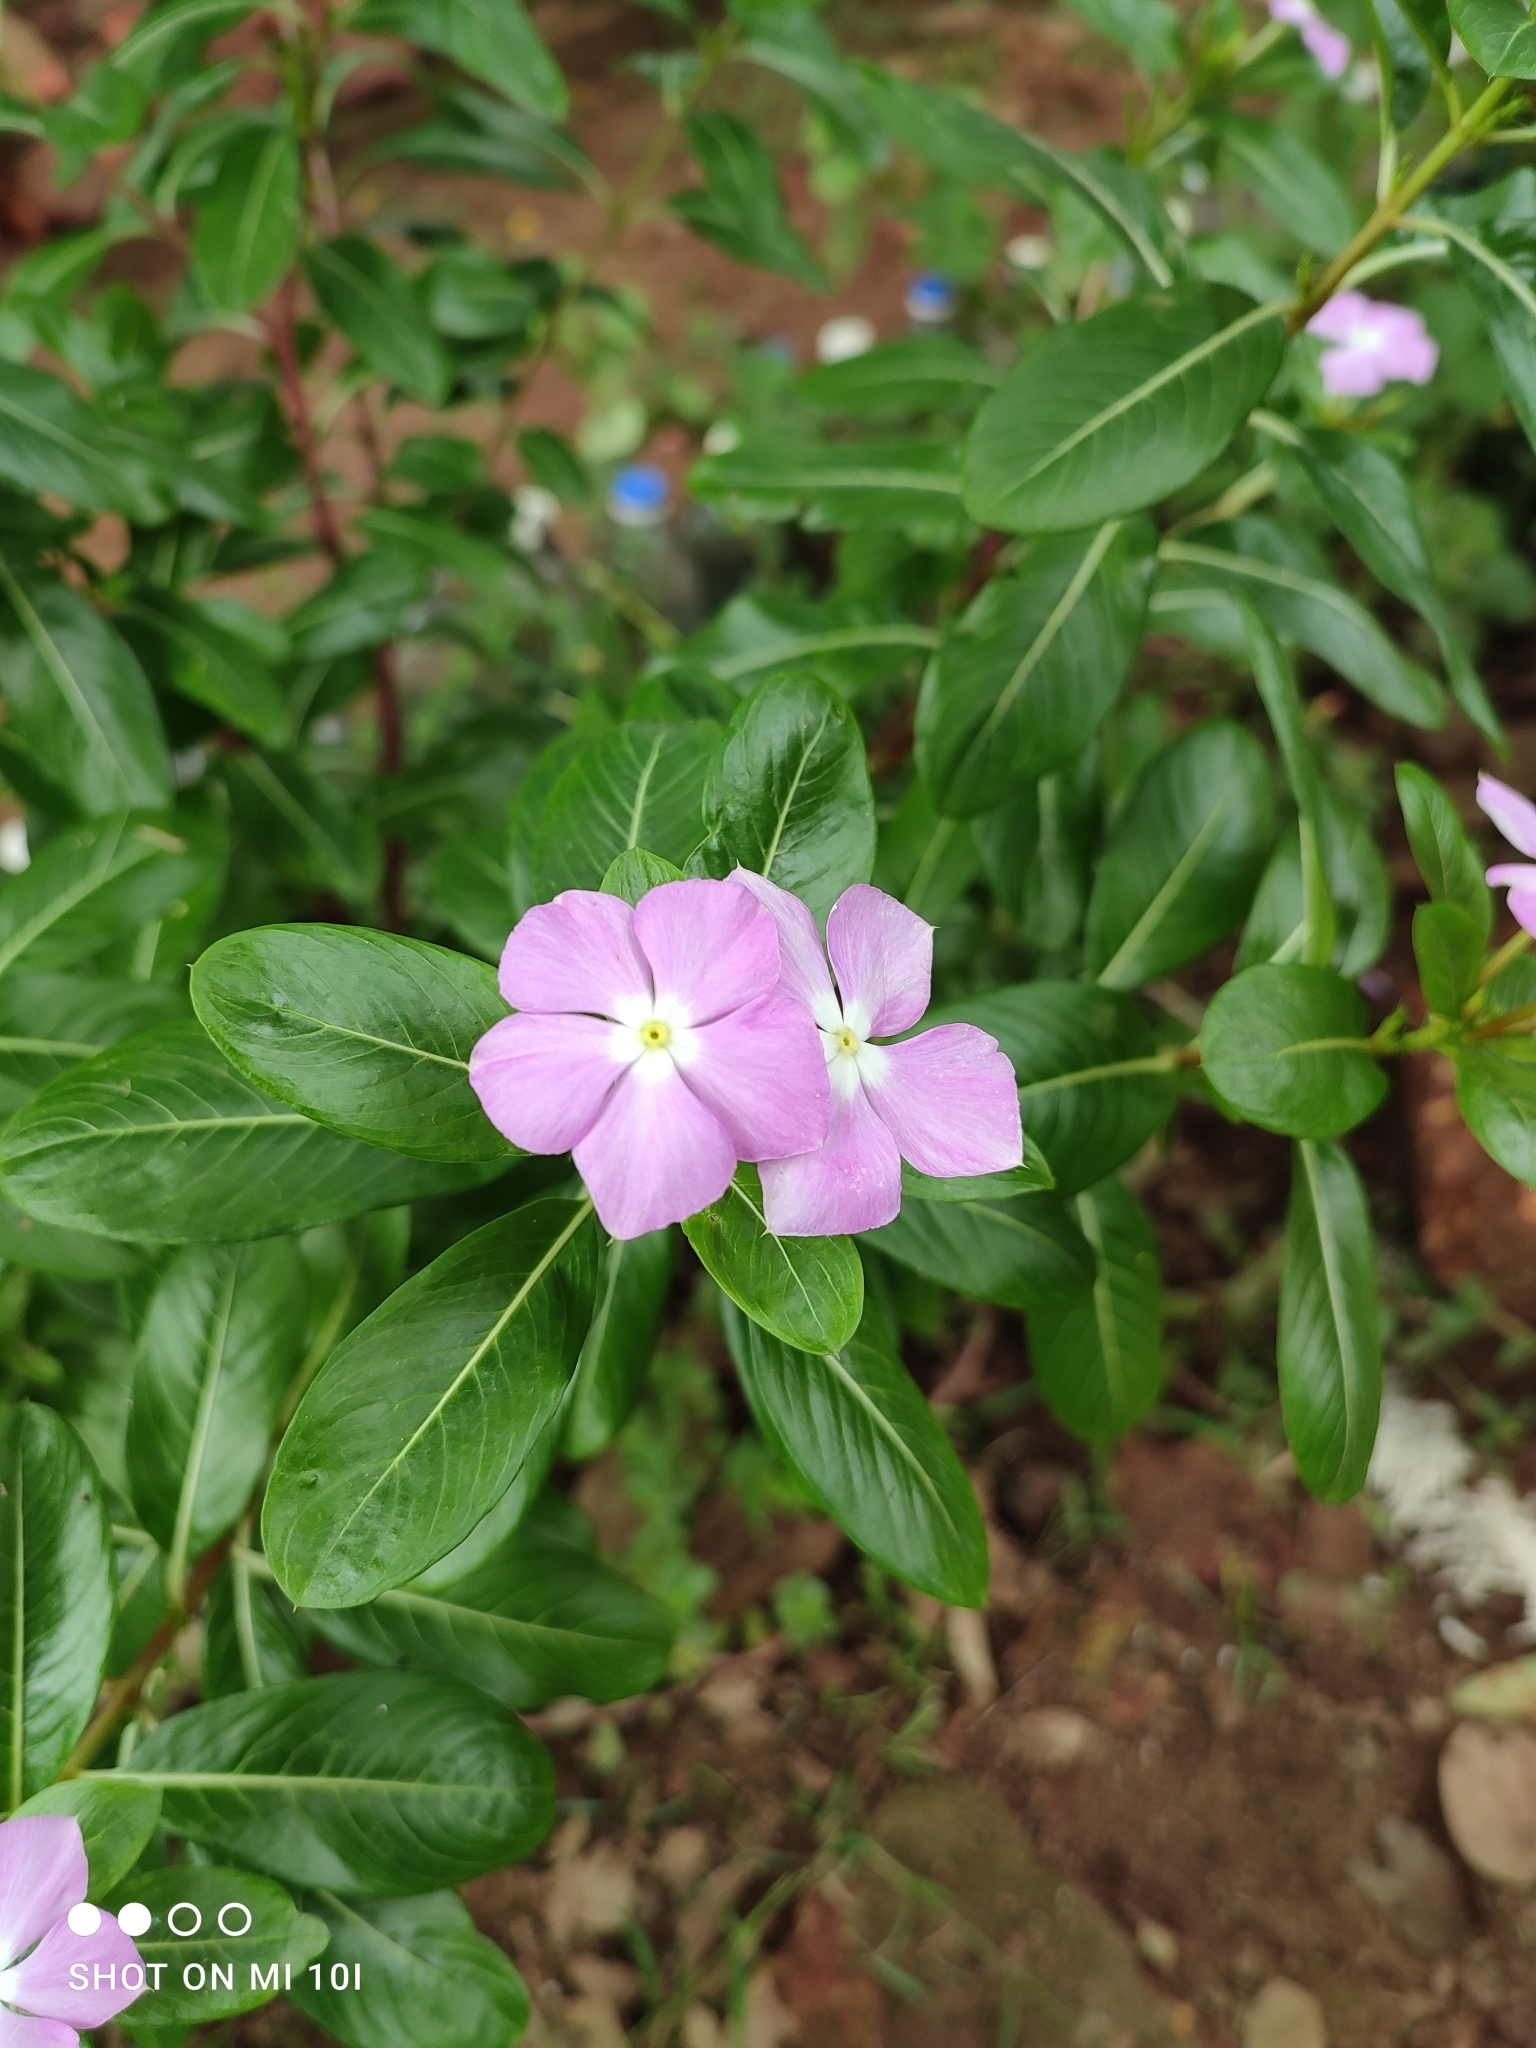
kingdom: Plantae
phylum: Tracheophyta
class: Magnoliopsida
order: Gentianales
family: Apocynaceae
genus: Catharanthus
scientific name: Catharanthus roseus
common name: Madagascar periwinkle
